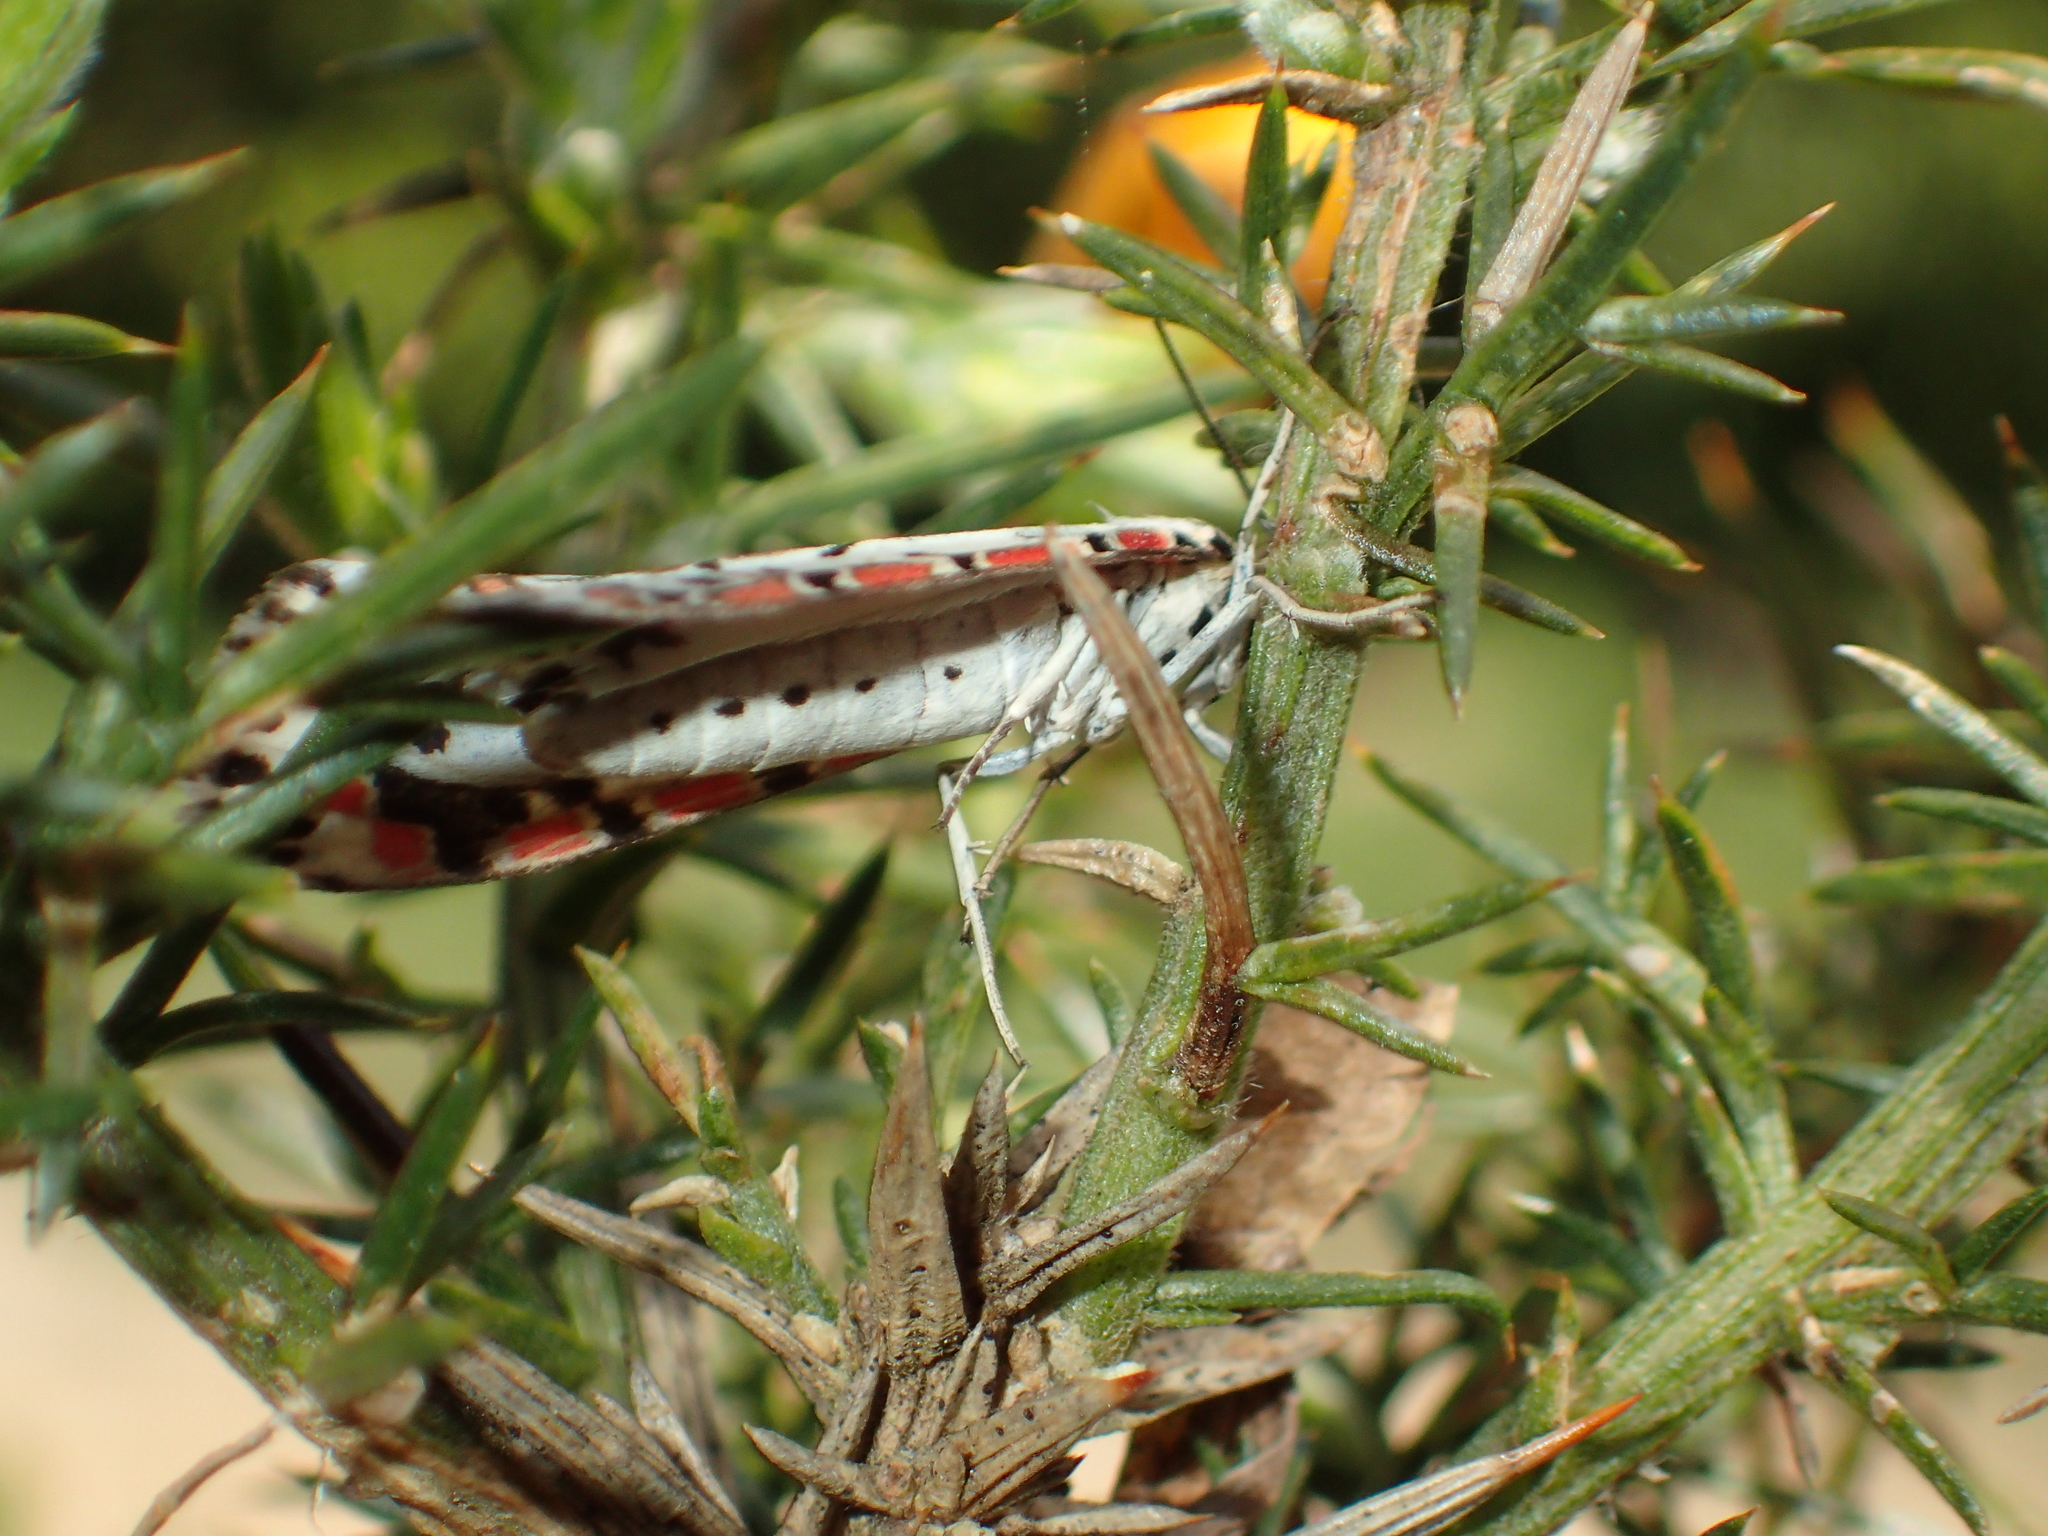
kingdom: Animalia
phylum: Arthropoda
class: Insecta
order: Lepidoptera
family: Erebidae
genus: Utetheisa
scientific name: Utetheisa pulchelloides
